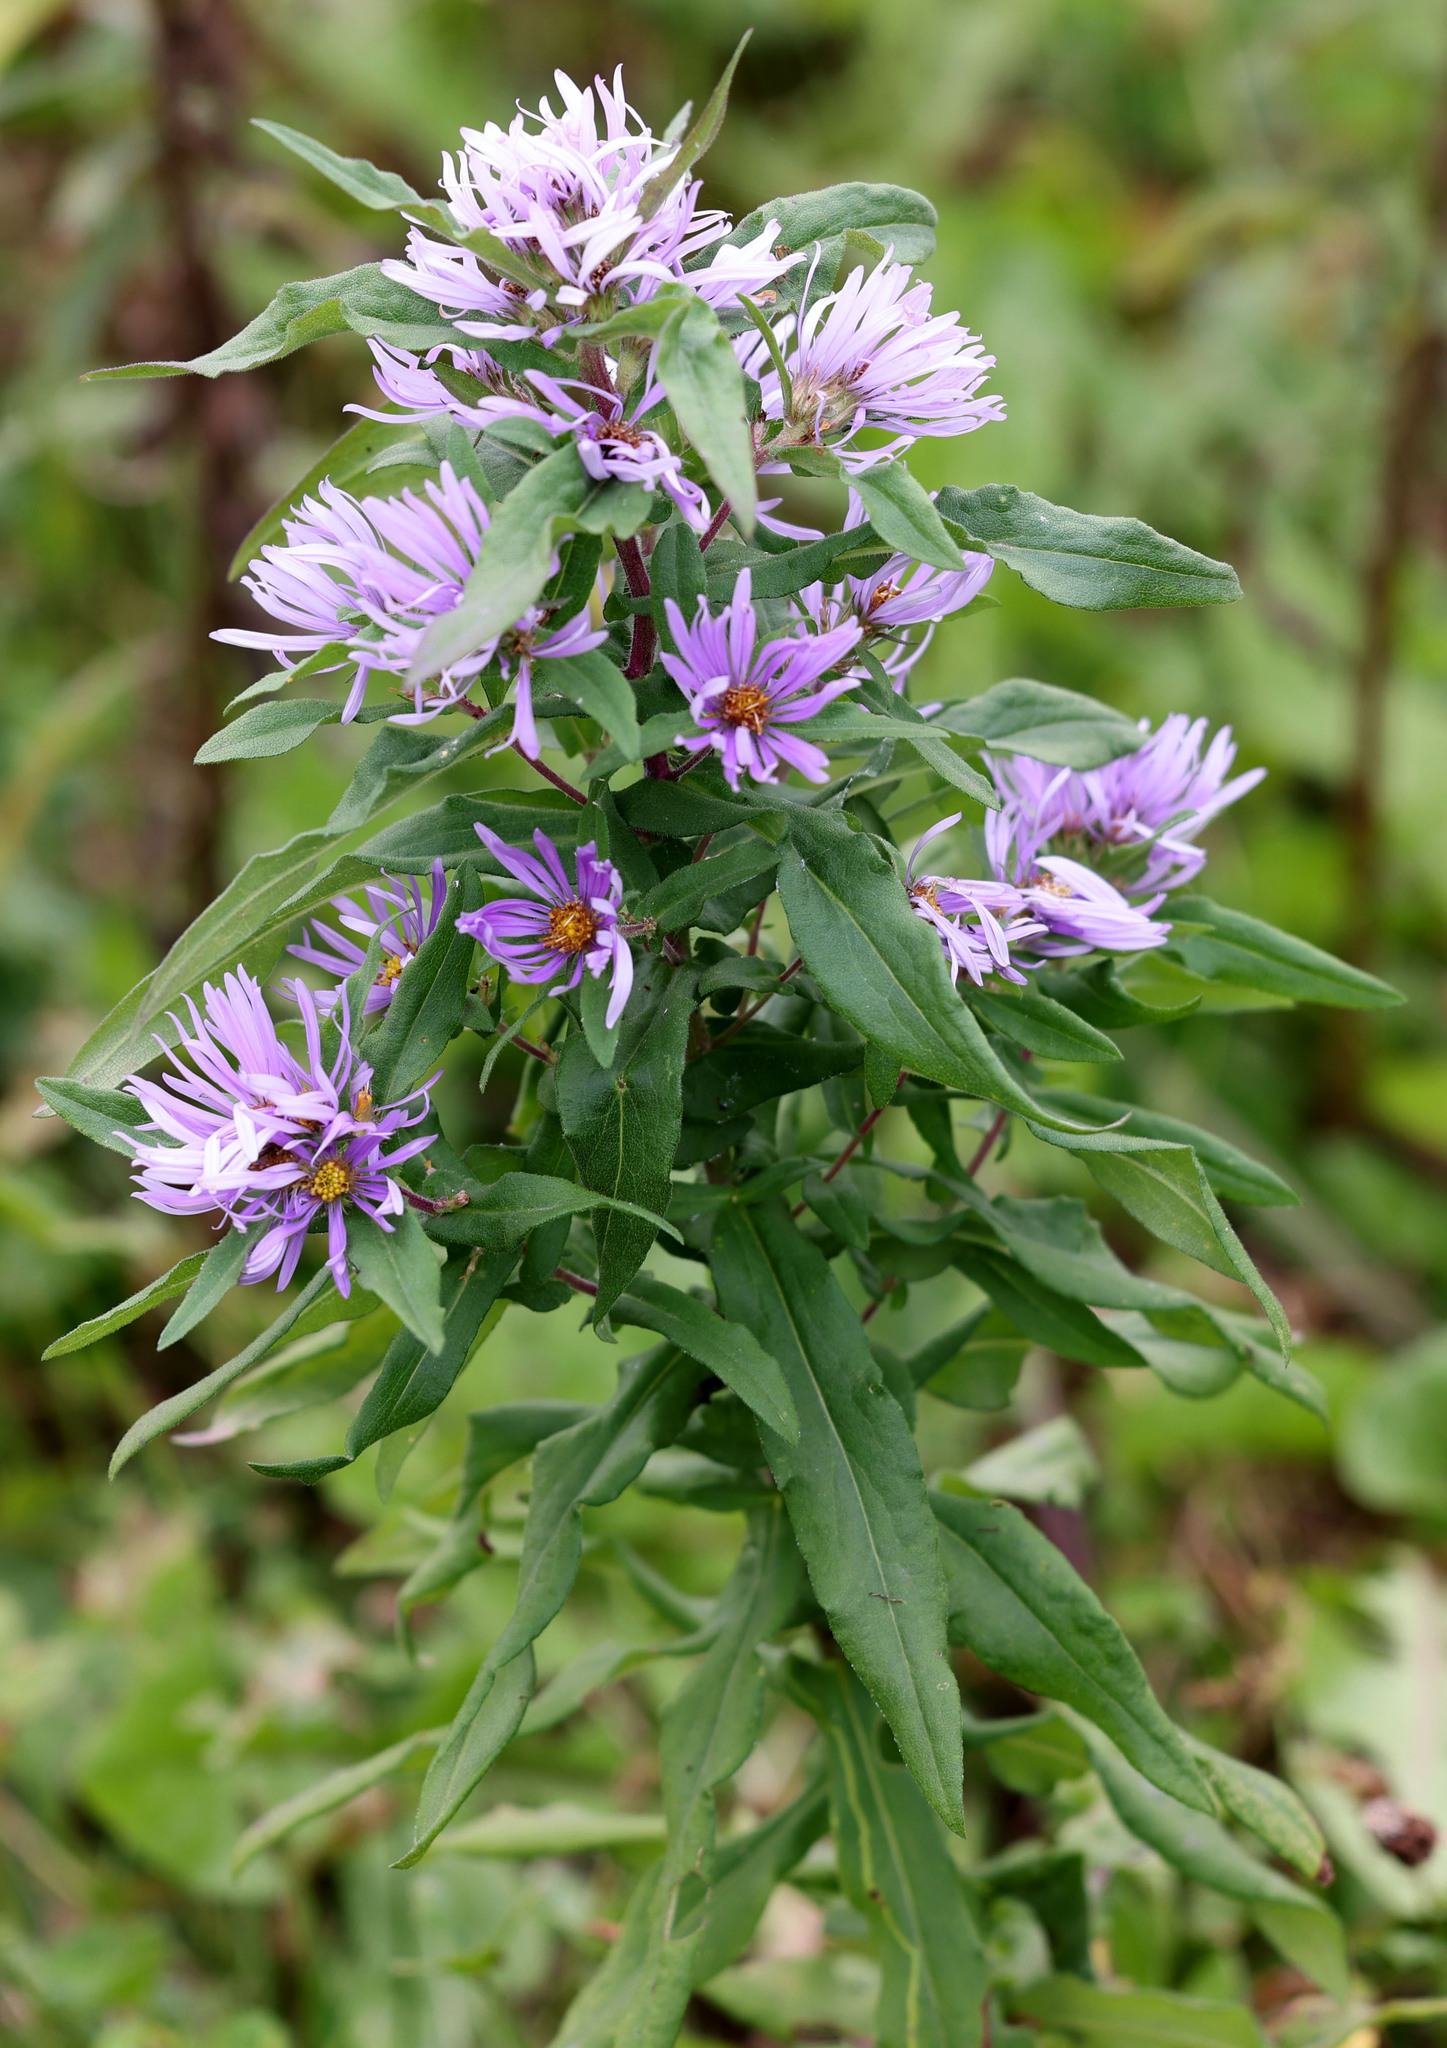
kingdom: Plantae
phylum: Tracheophyta
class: Magnoliopsida
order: Asterales
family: Asteraceae
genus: Symphyotrichum
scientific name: Symphyotrichum novae-angliae
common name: Michaelmas daisy
